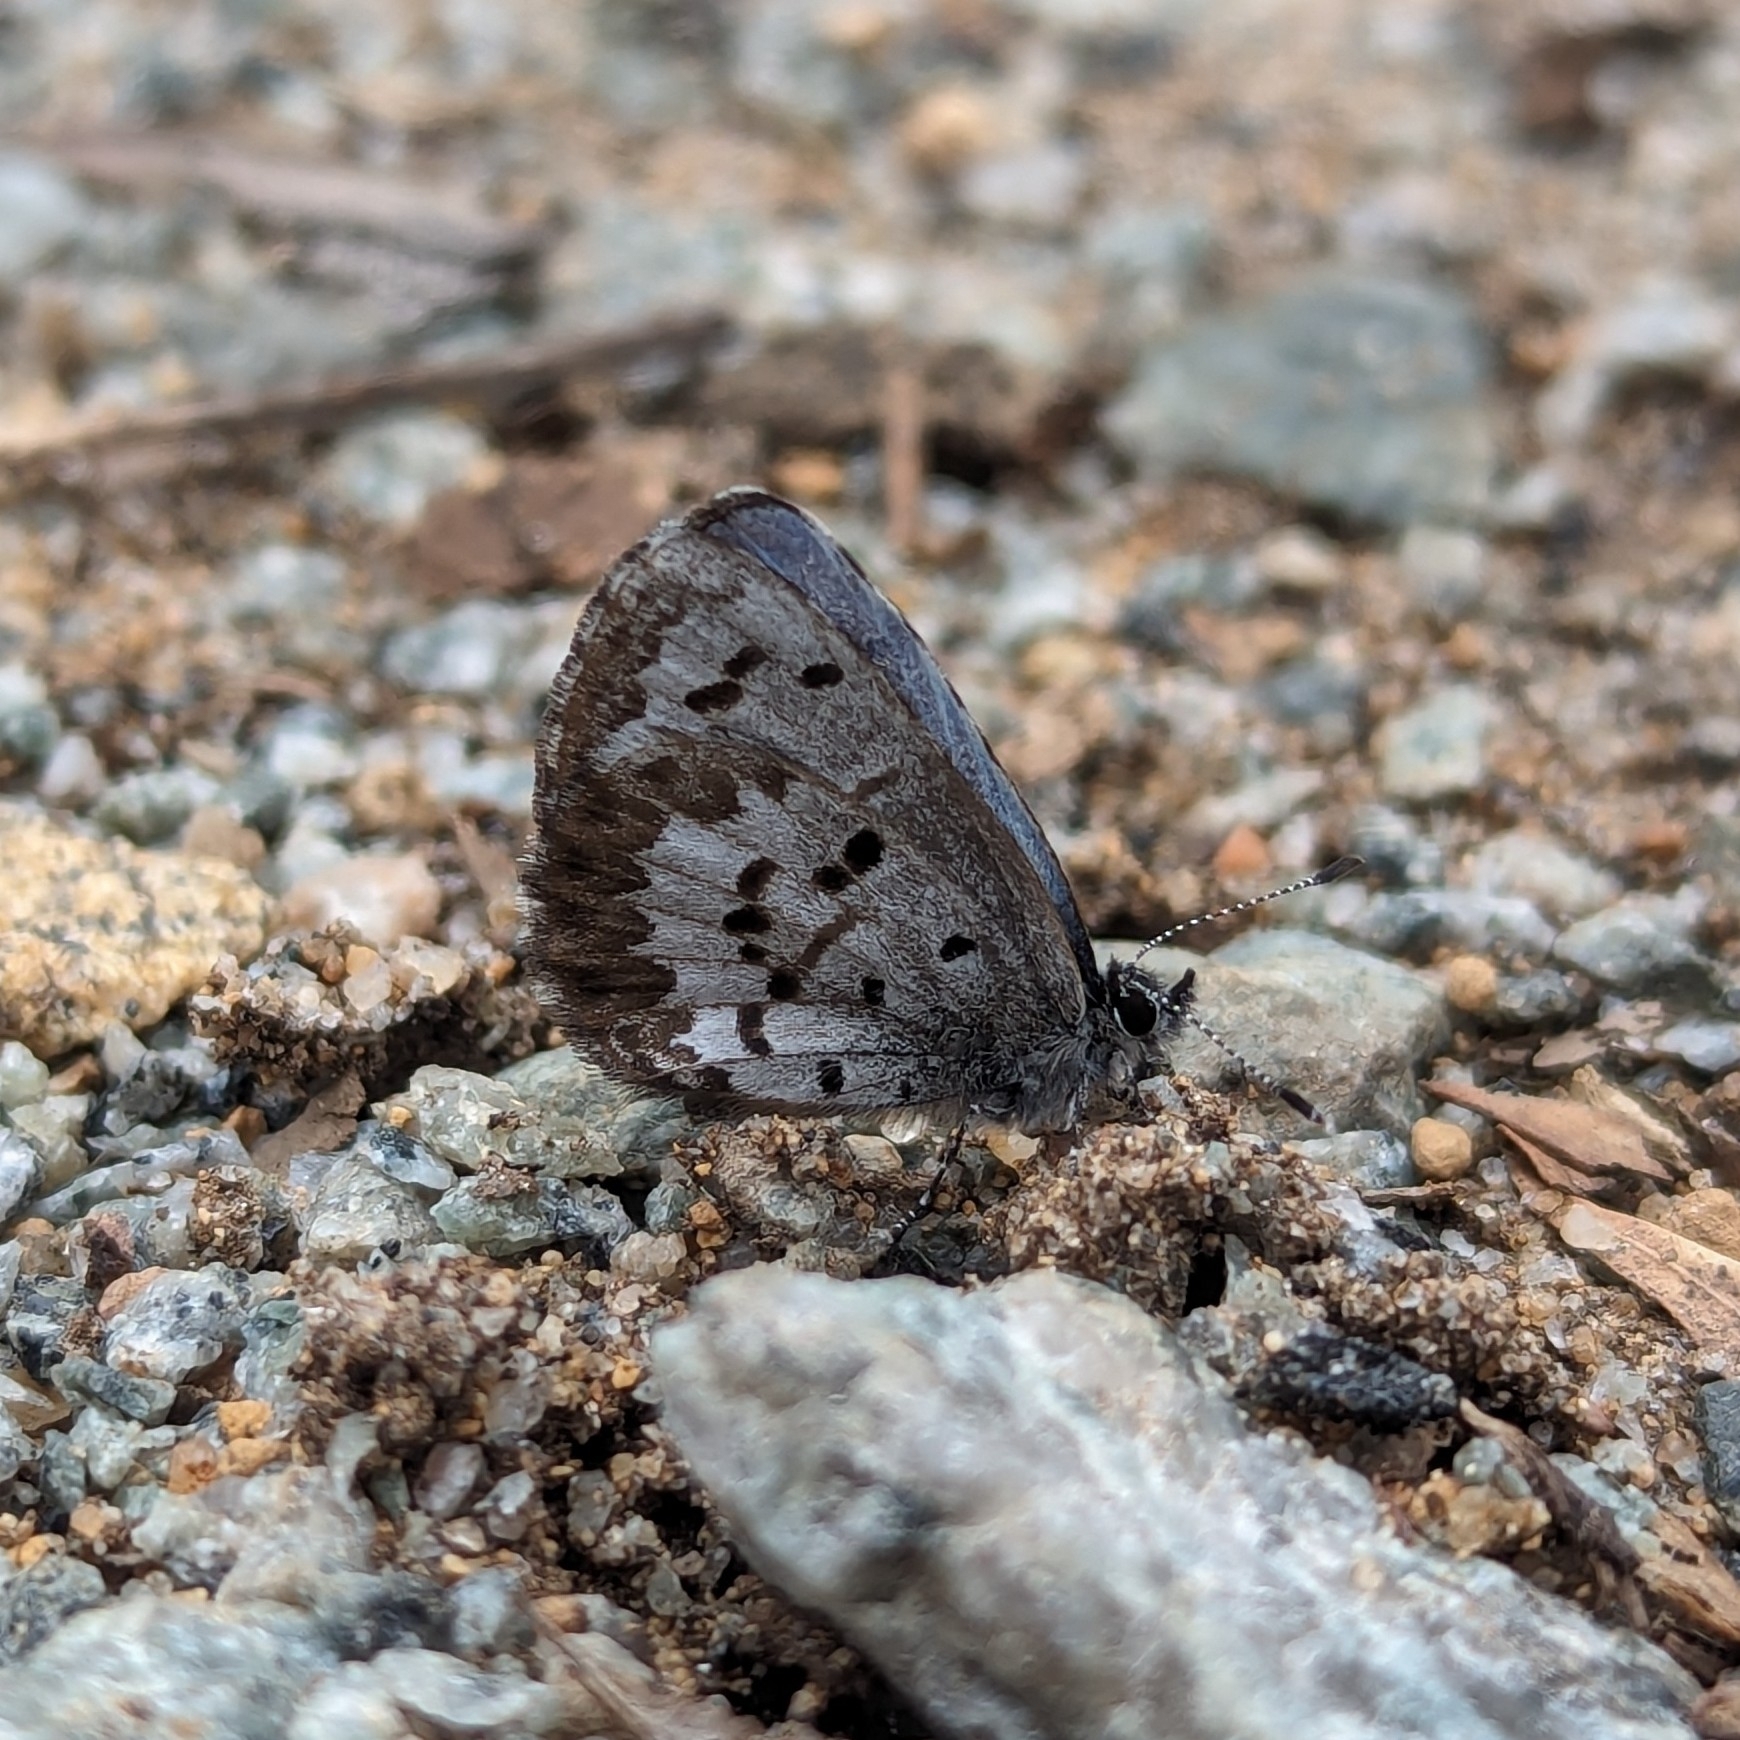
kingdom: Animalia
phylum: Arthropoda
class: Insecta
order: Lepidoptera
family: Lycaenidae
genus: Celastrina
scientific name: Celastrina ladon
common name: Spring azure
